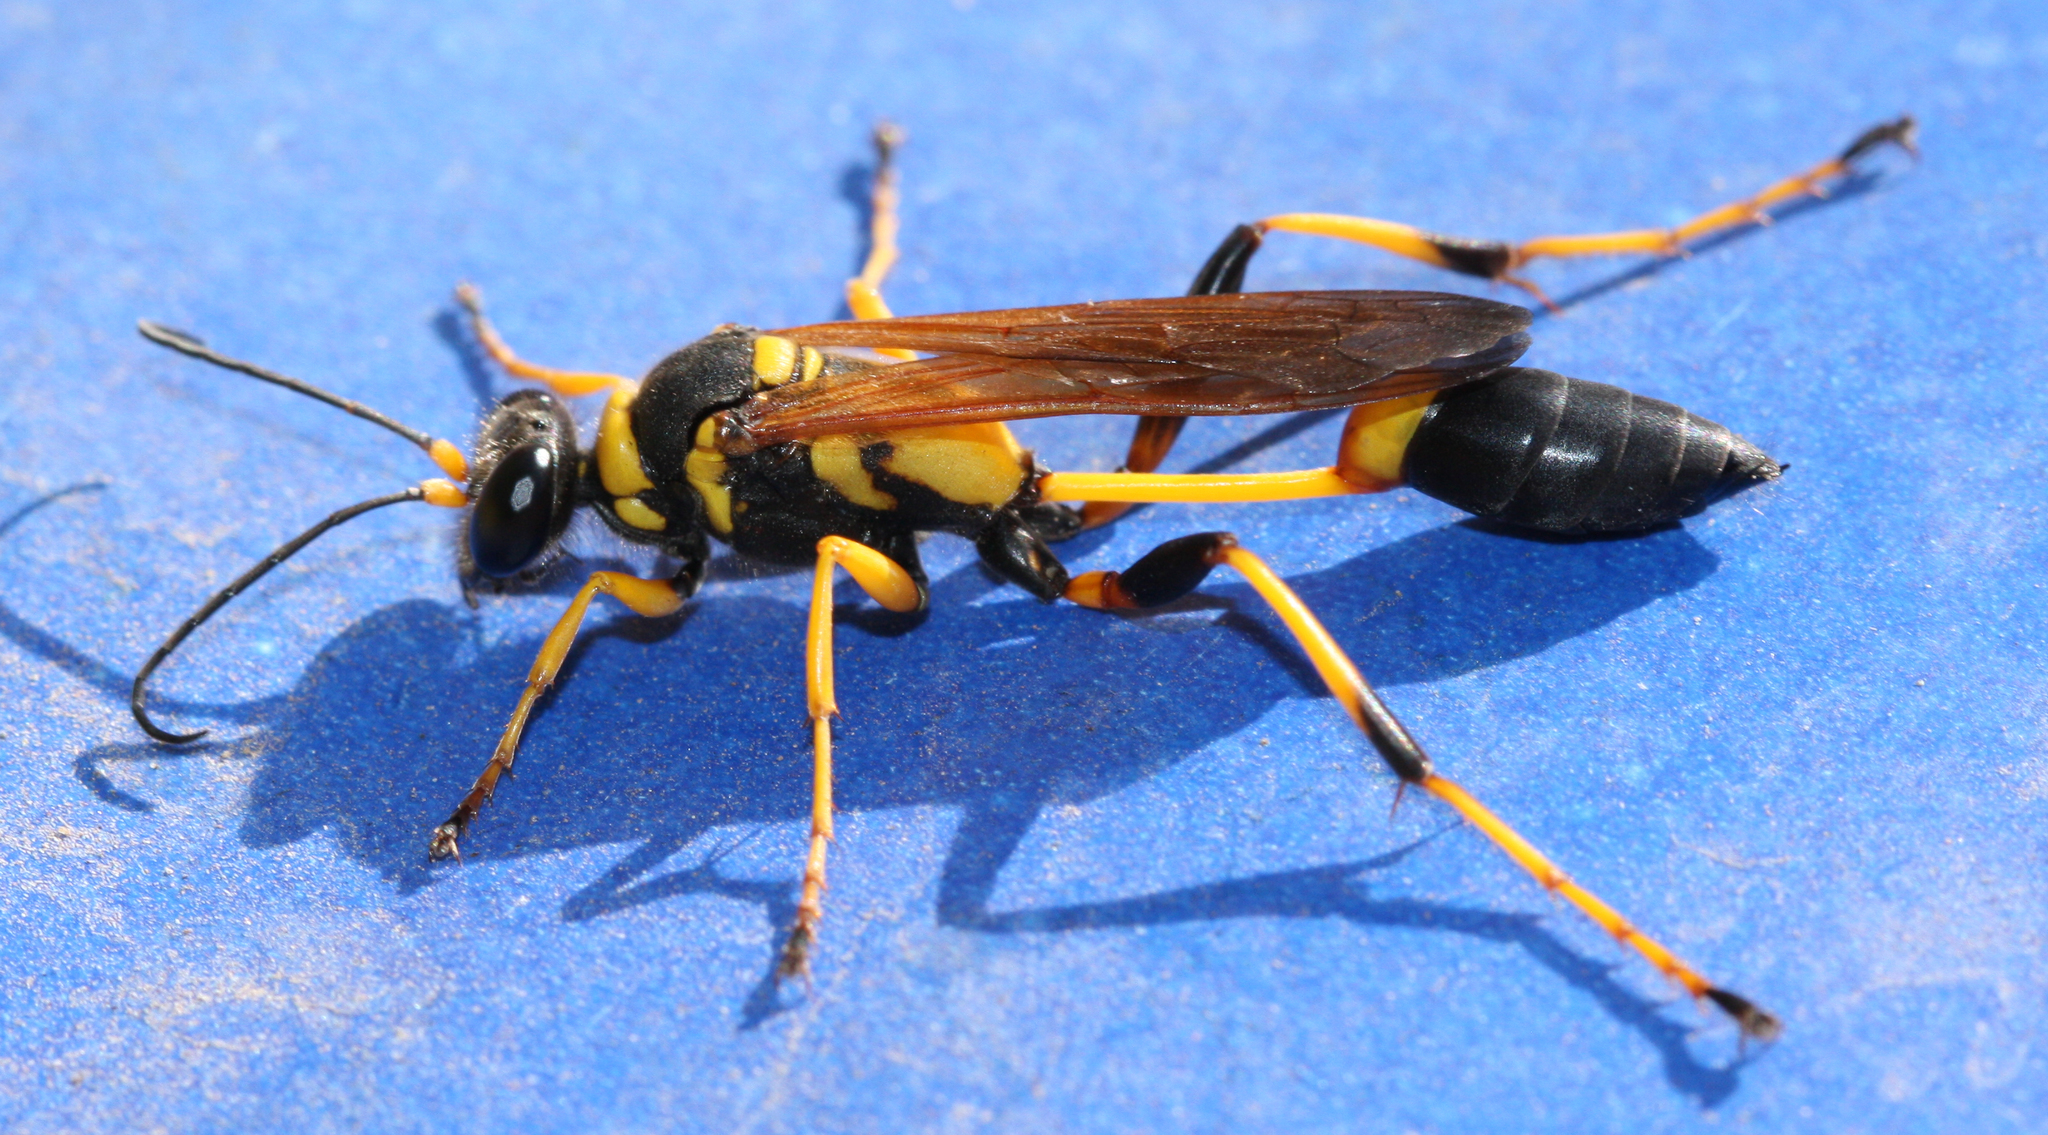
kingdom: Animalia
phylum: Arthropoda
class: Insecta
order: Hymenoptera
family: Sphecidae
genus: Sceliphron
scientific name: Sceliphron caementarium
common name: Mud dauber
